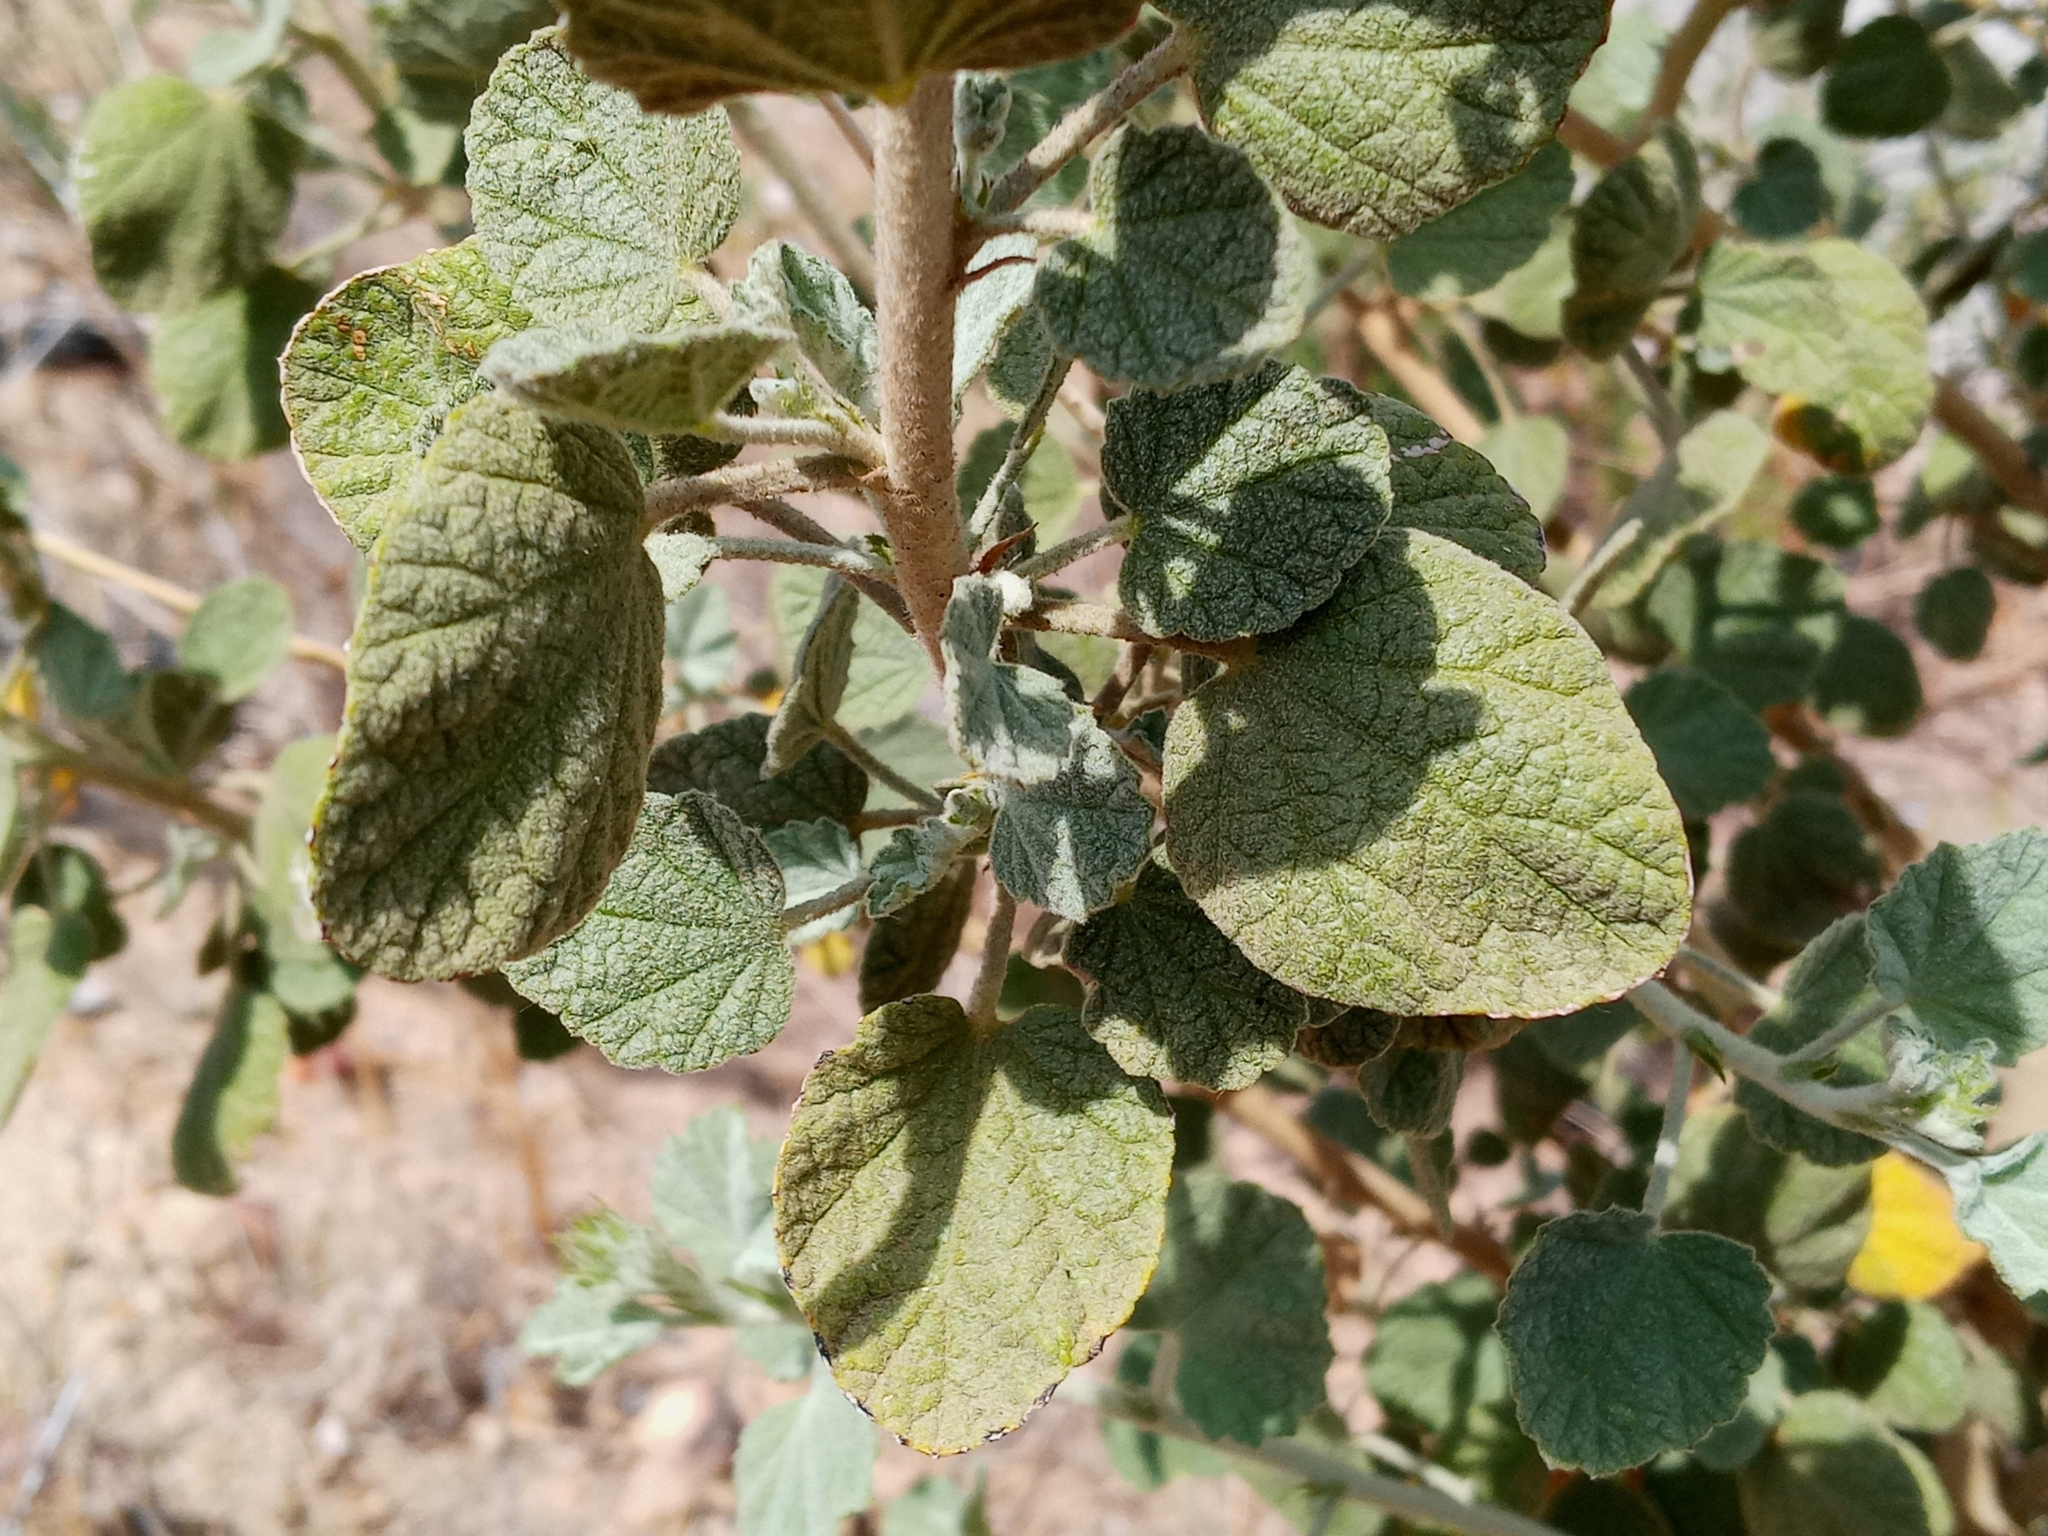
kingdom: Plantae
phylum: Tracheophyta
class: Magnoliopsida
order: Malvales
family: Malvaceae
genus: Malacothamnus
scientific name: Malacothamnus marrubioides
